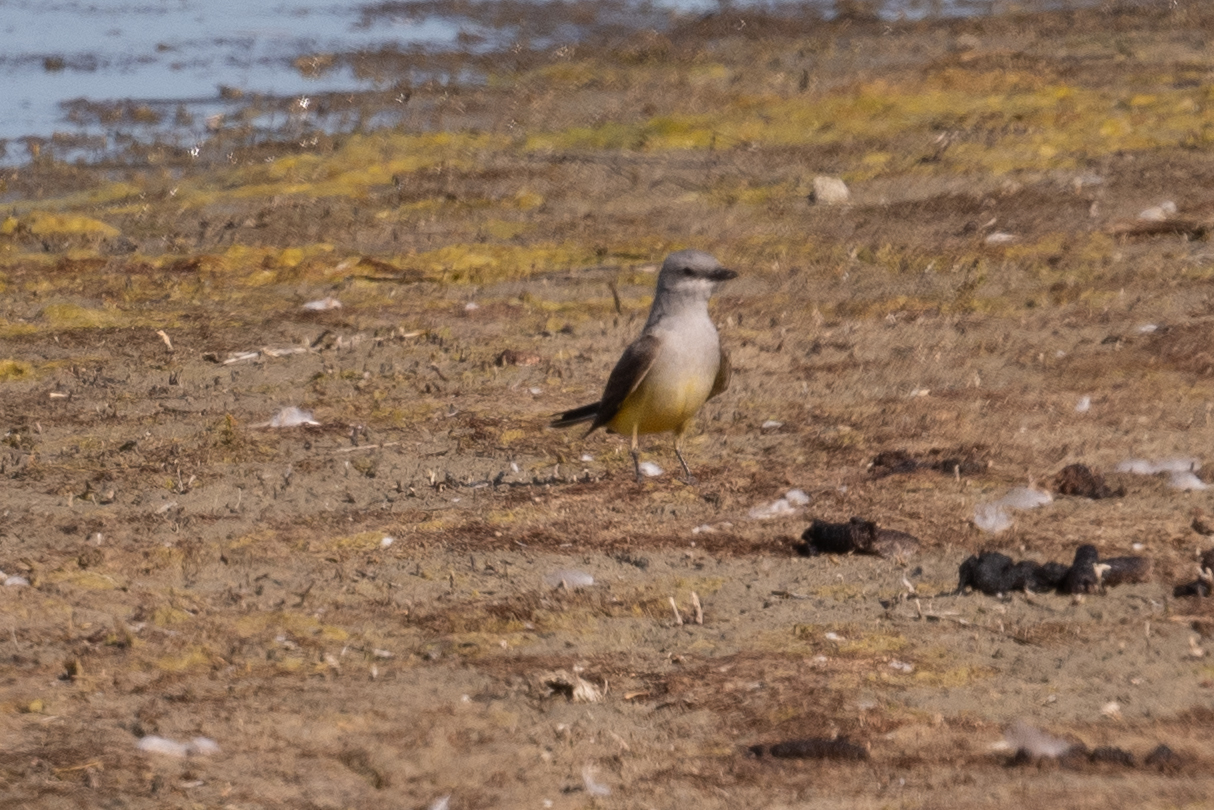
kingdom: Animalia
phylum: Chordata
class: Aves
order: Passeriformes
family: Tyrannidae
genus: Tyrannus
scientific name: Tyrannus verticalis
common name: Western kingbird
